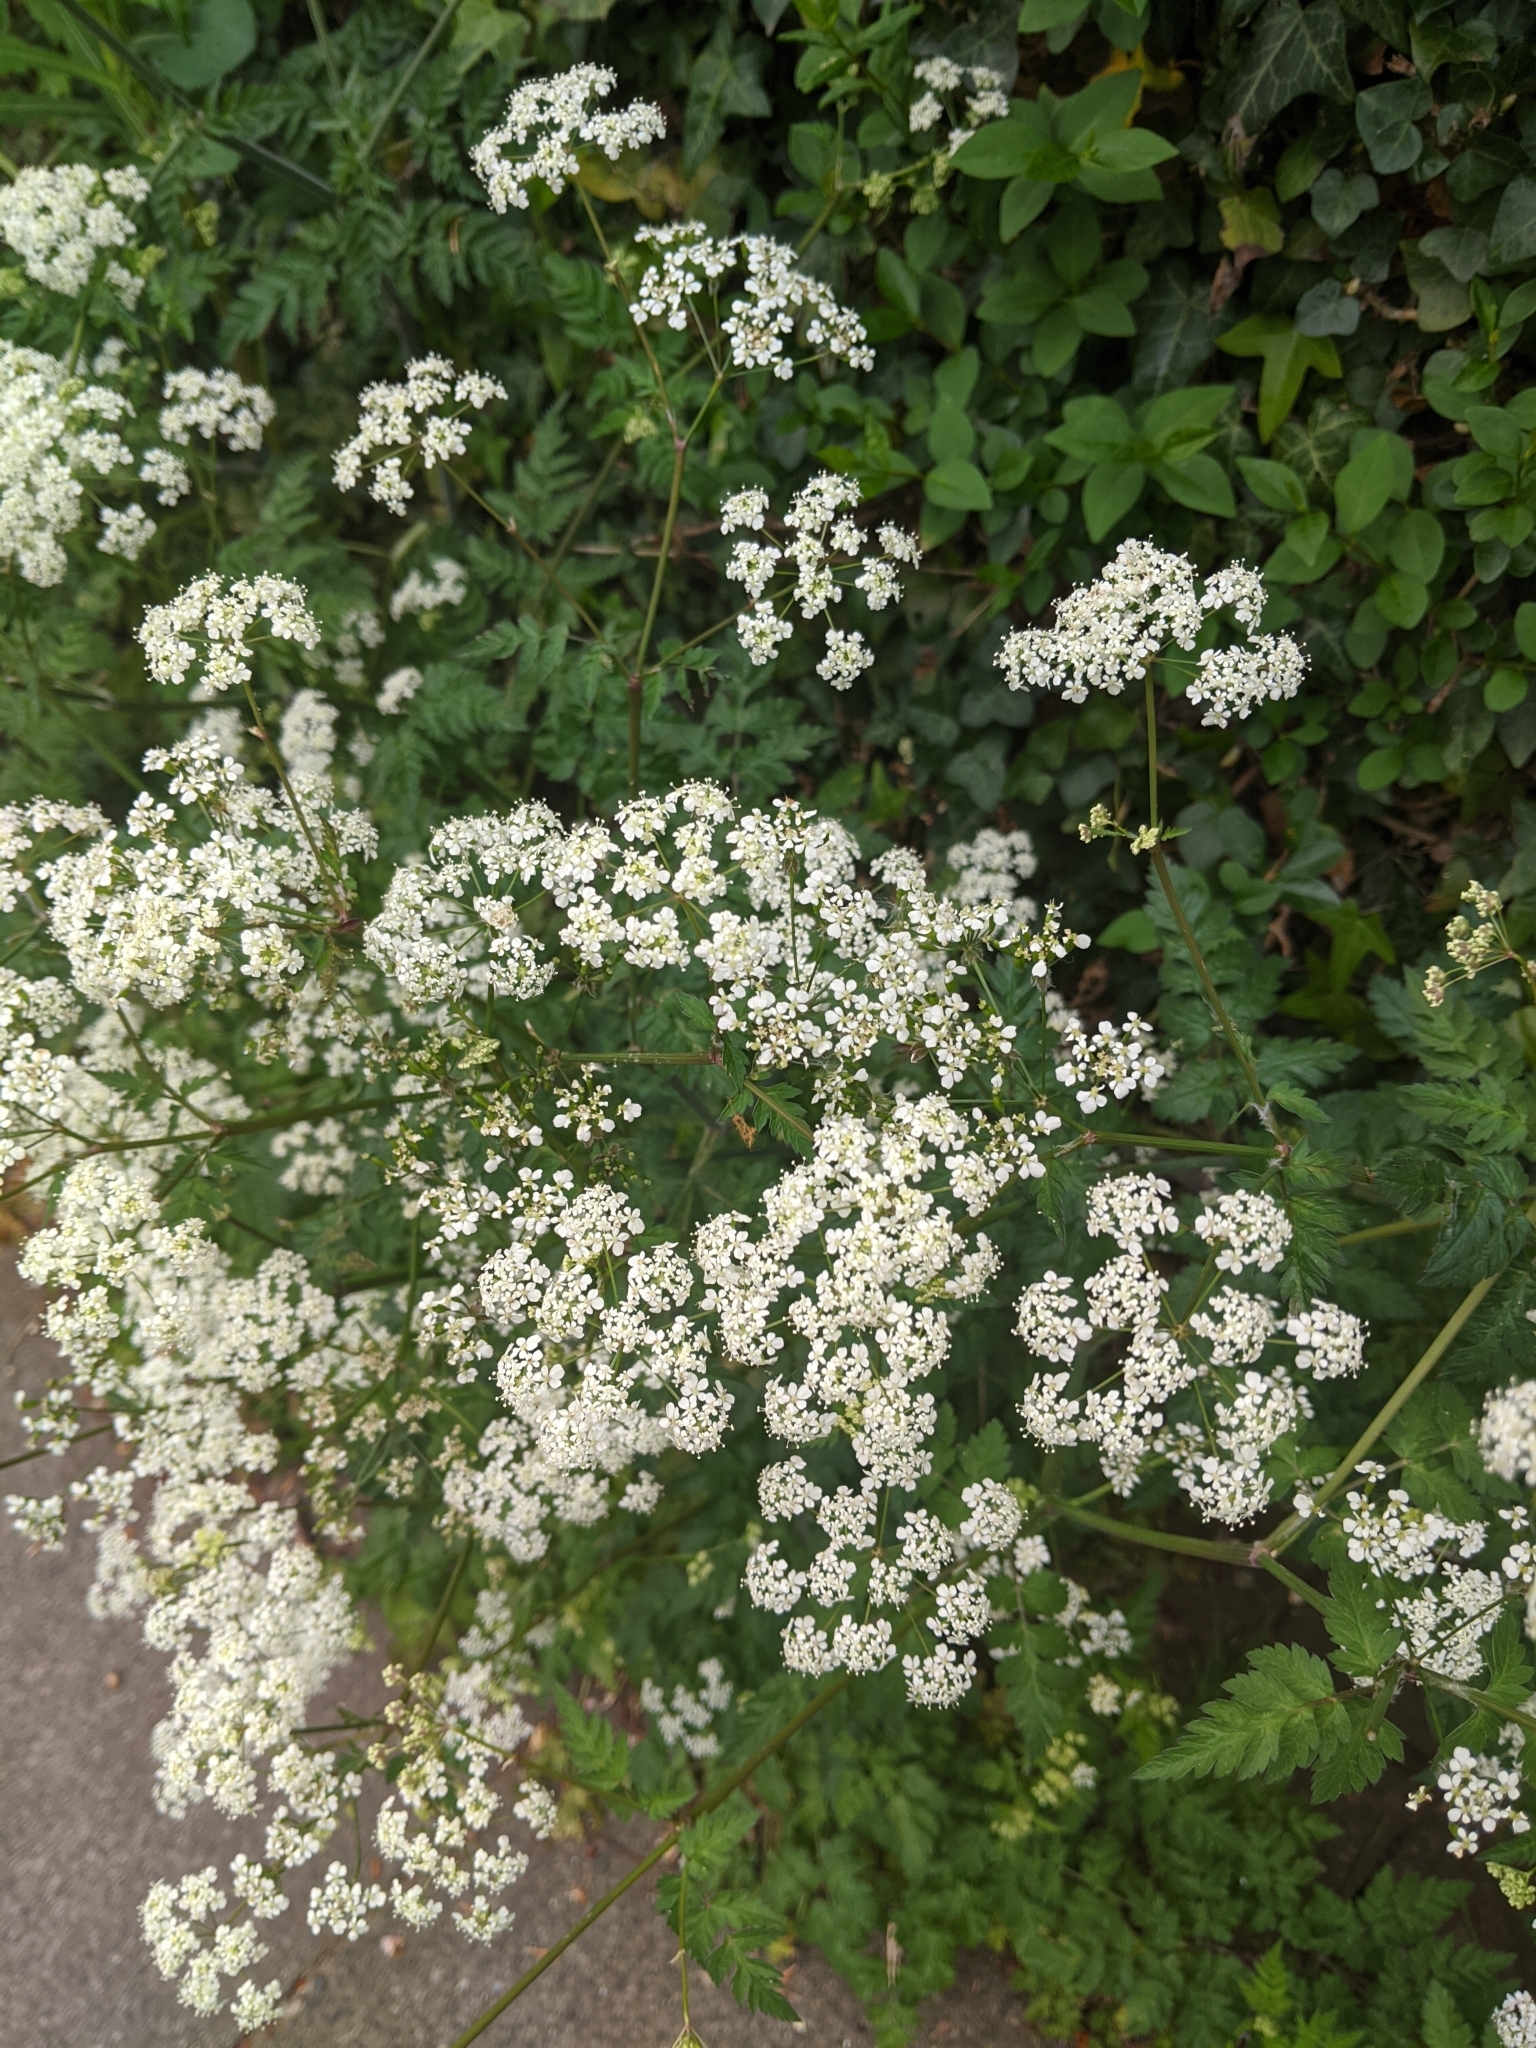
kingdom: Plantae
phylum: Tracheophyta
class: Magnoliopsida
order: Apiales
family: Apiaceae
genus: Anthriscus
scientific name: Anthriscus sylvestris
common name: Cow parsley
